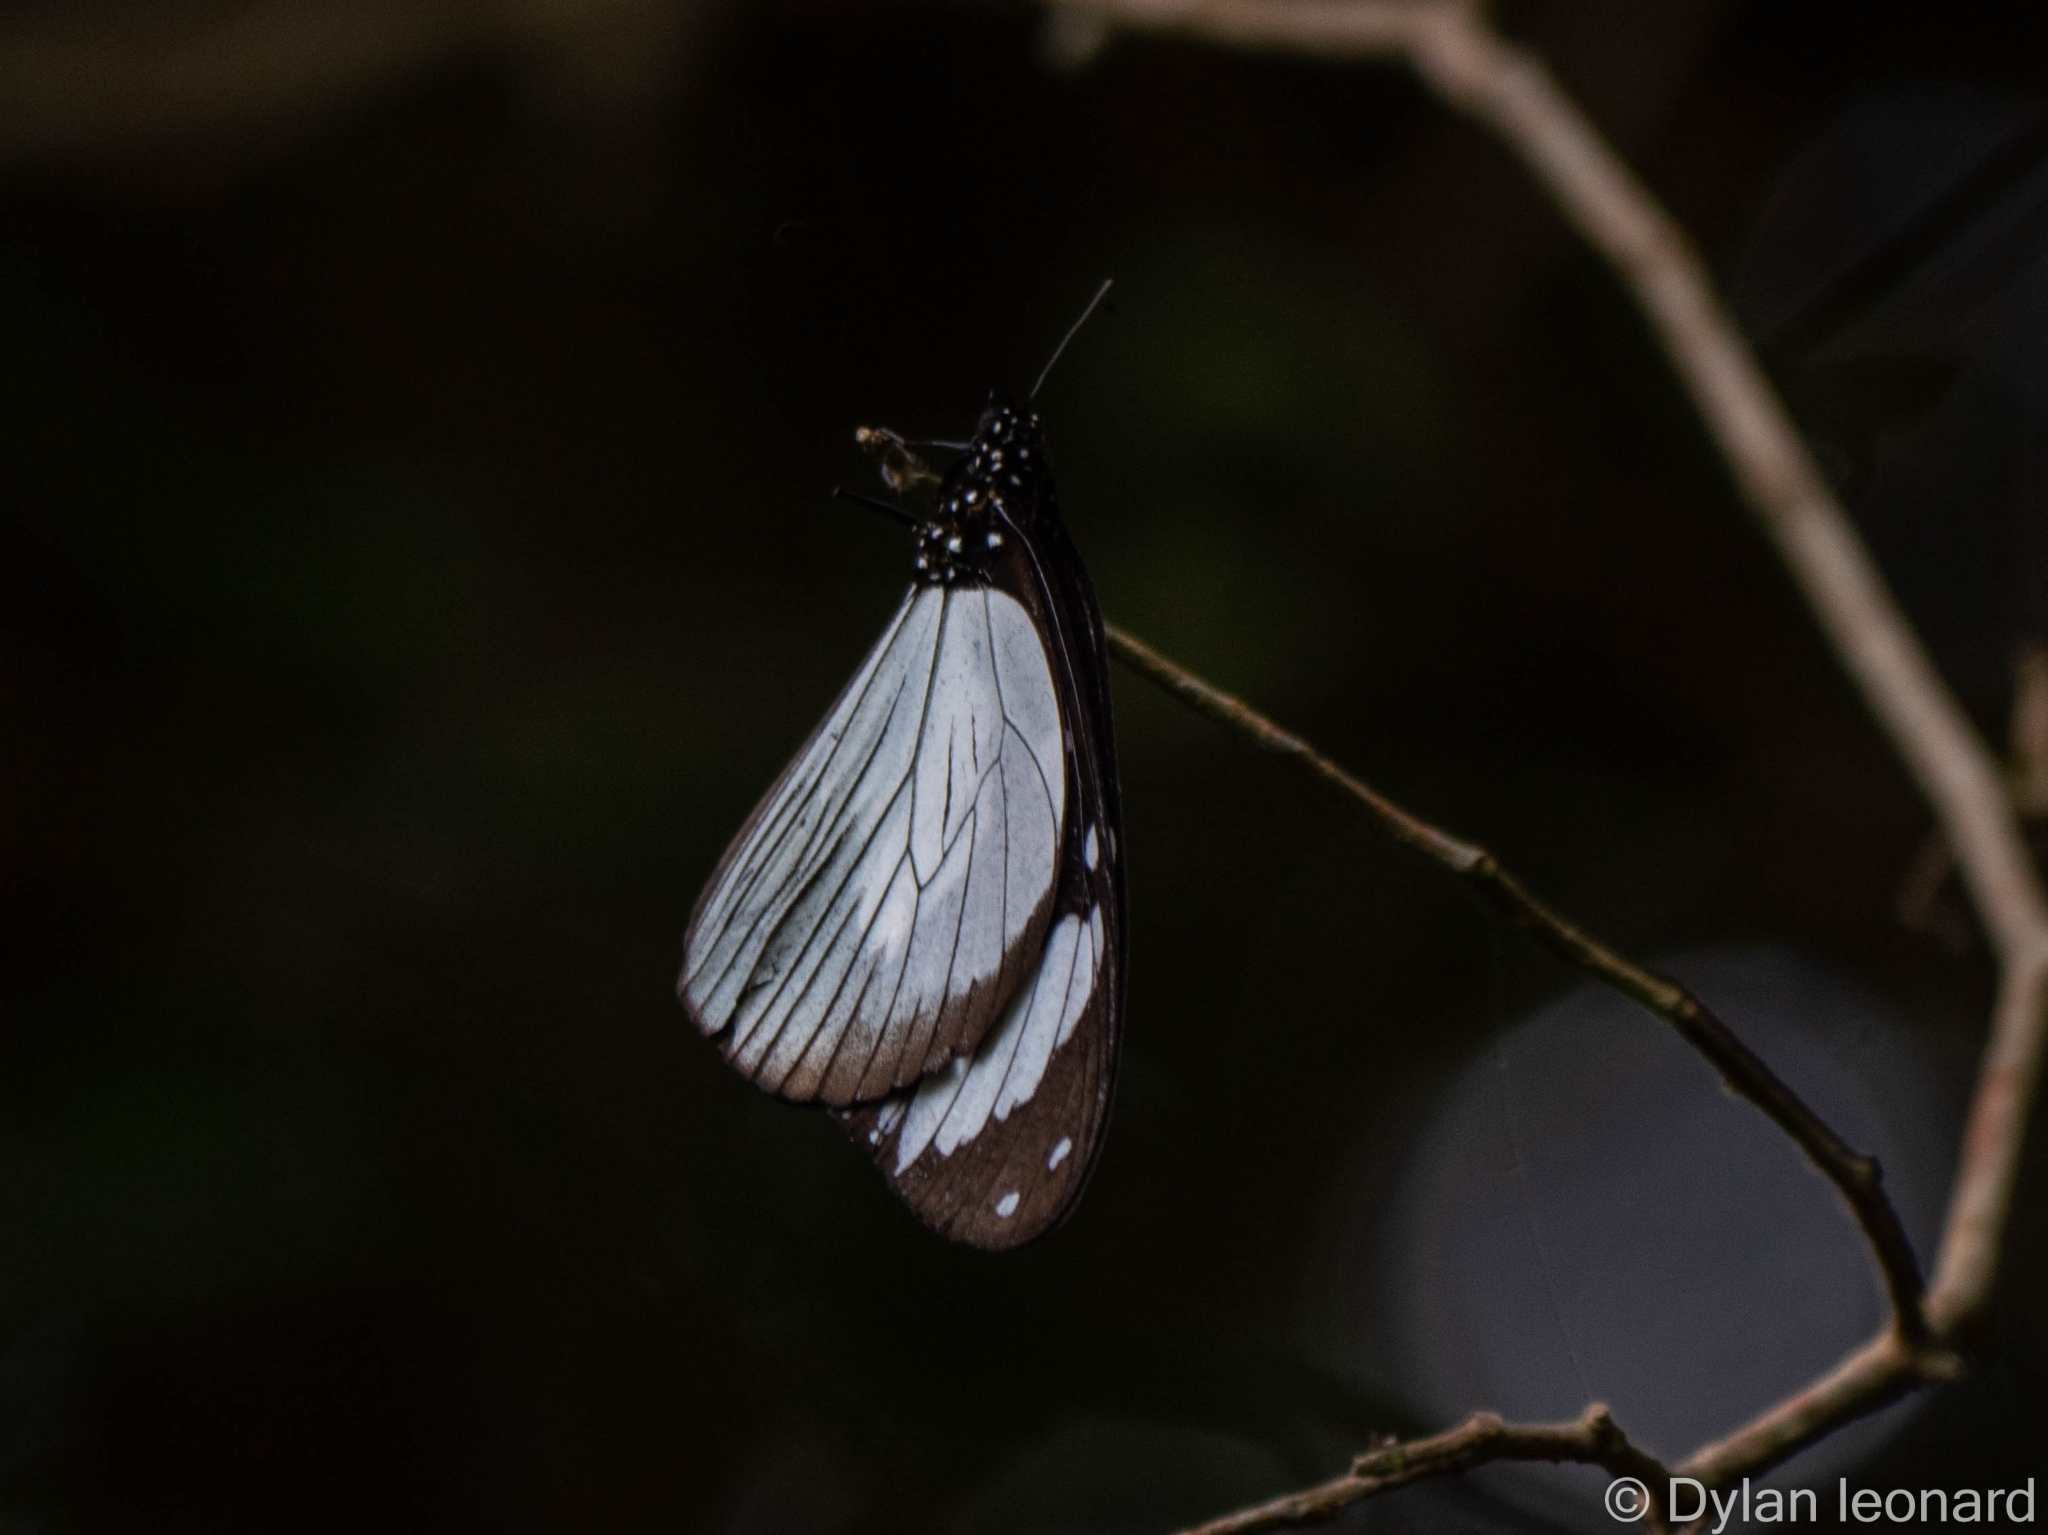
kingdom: Animalia
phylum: Arthropoda
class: Insecta
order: Lepidoptera
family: Nymphalidae
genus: Amauris
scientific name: Amauris niavius
